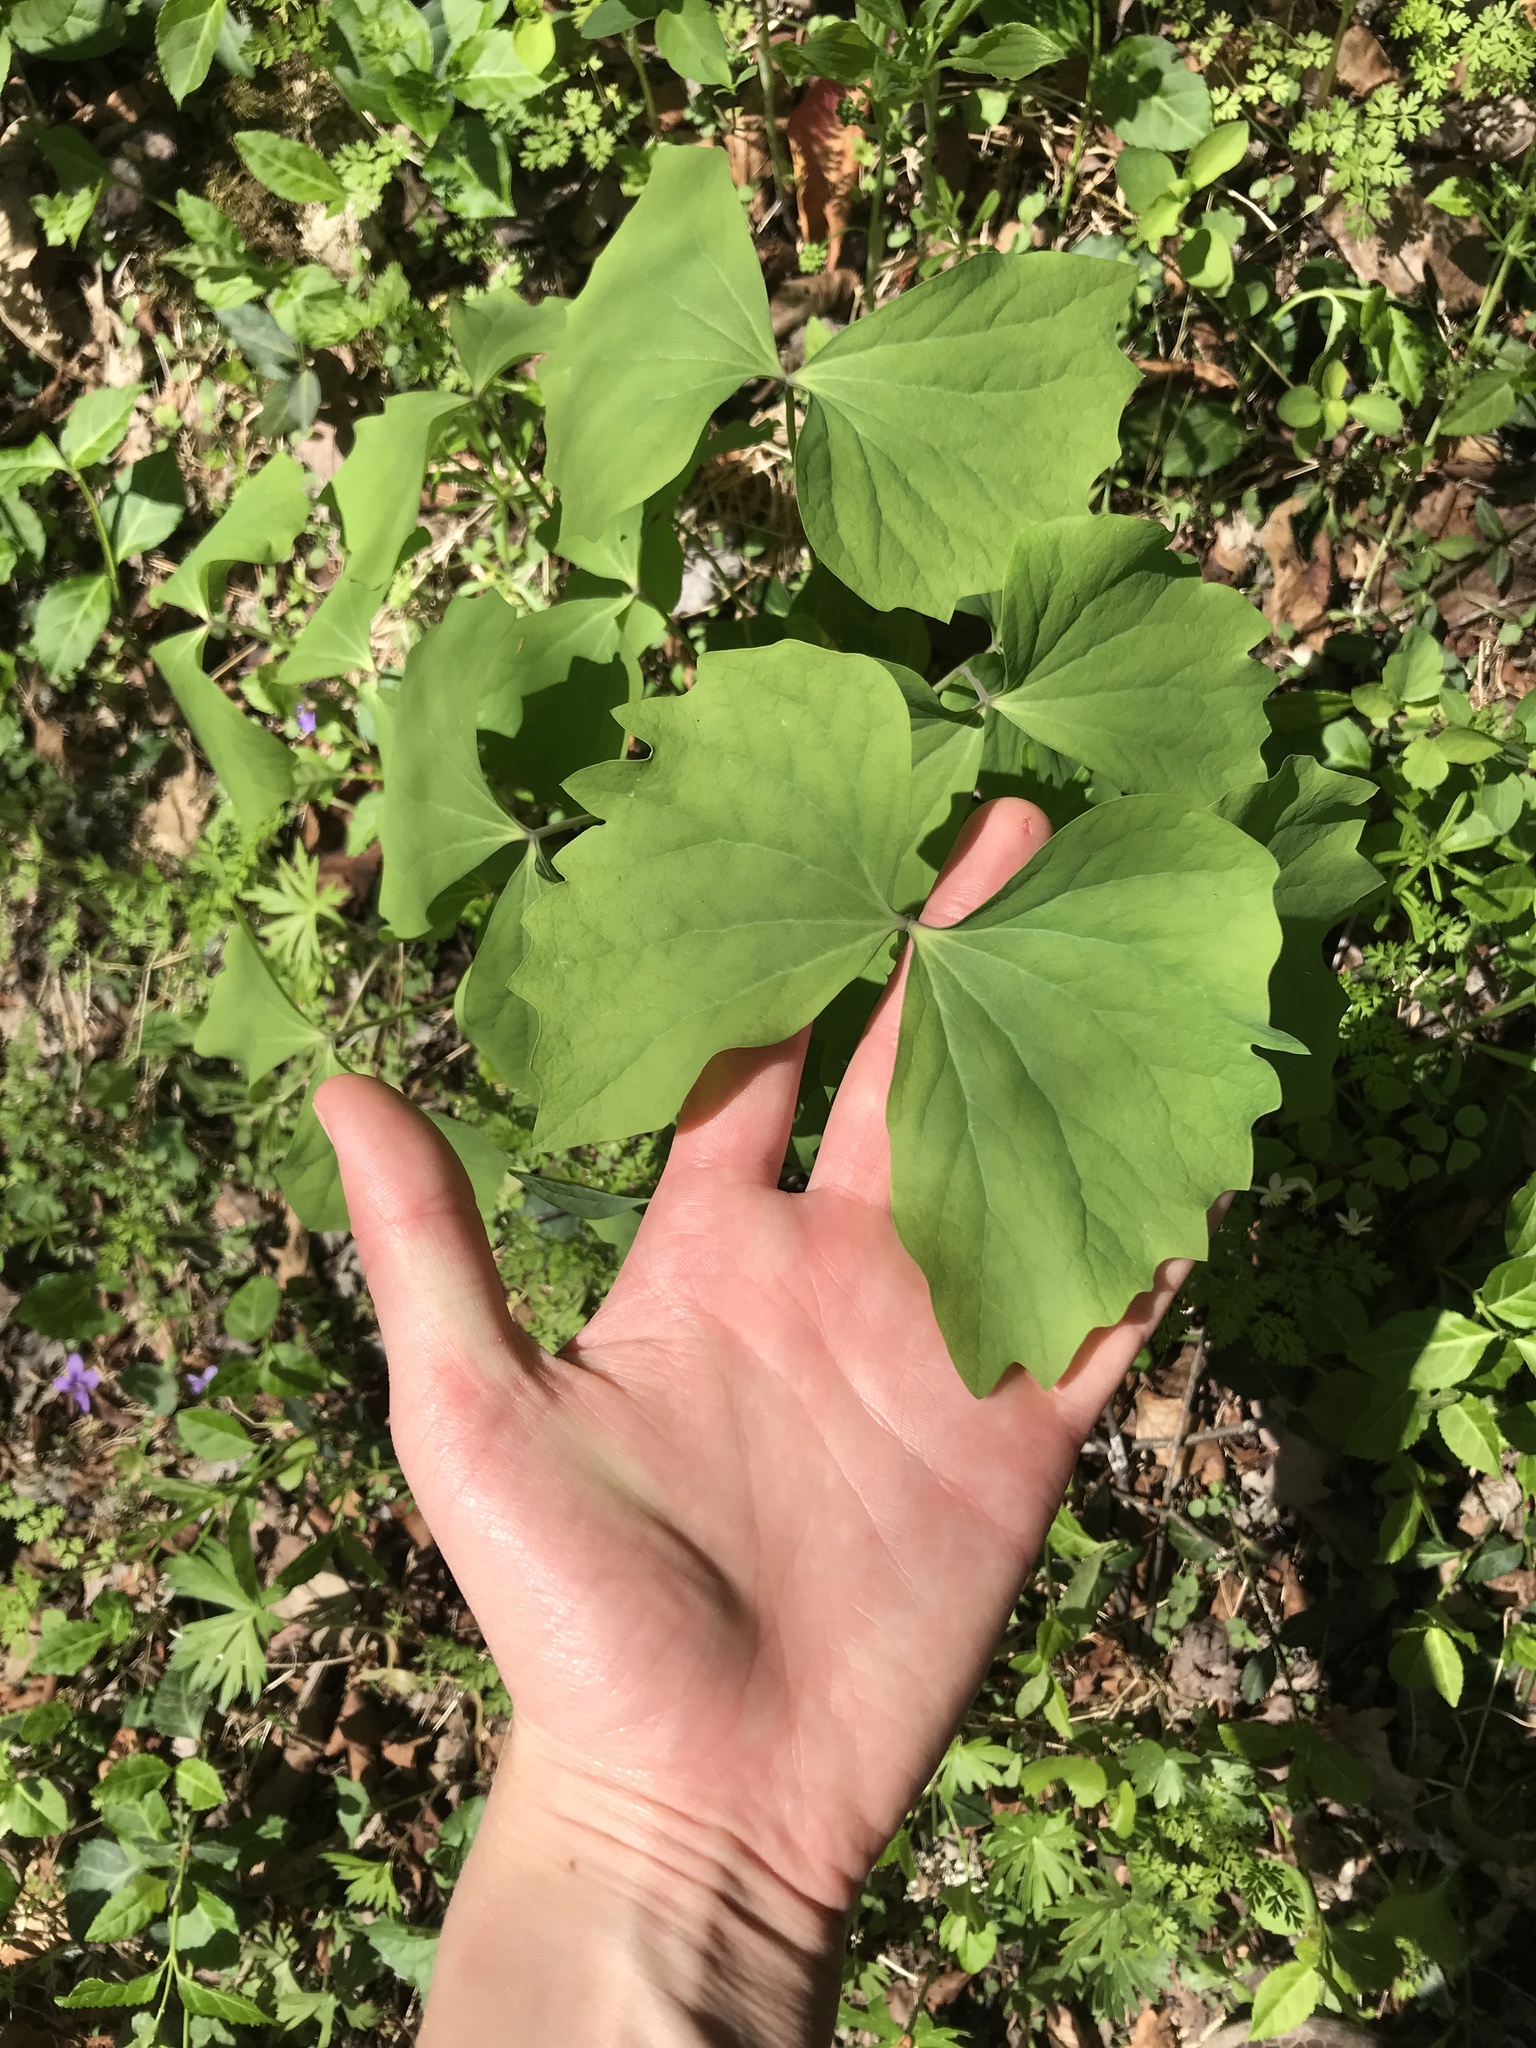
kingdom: Plantae
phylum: Tracheophyta
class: Magnoliopsida
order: Ranunculales
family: Berberidaceae
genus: Jeffersonia
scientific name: Jeffersonia diphylla
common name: Rheumatism-root
